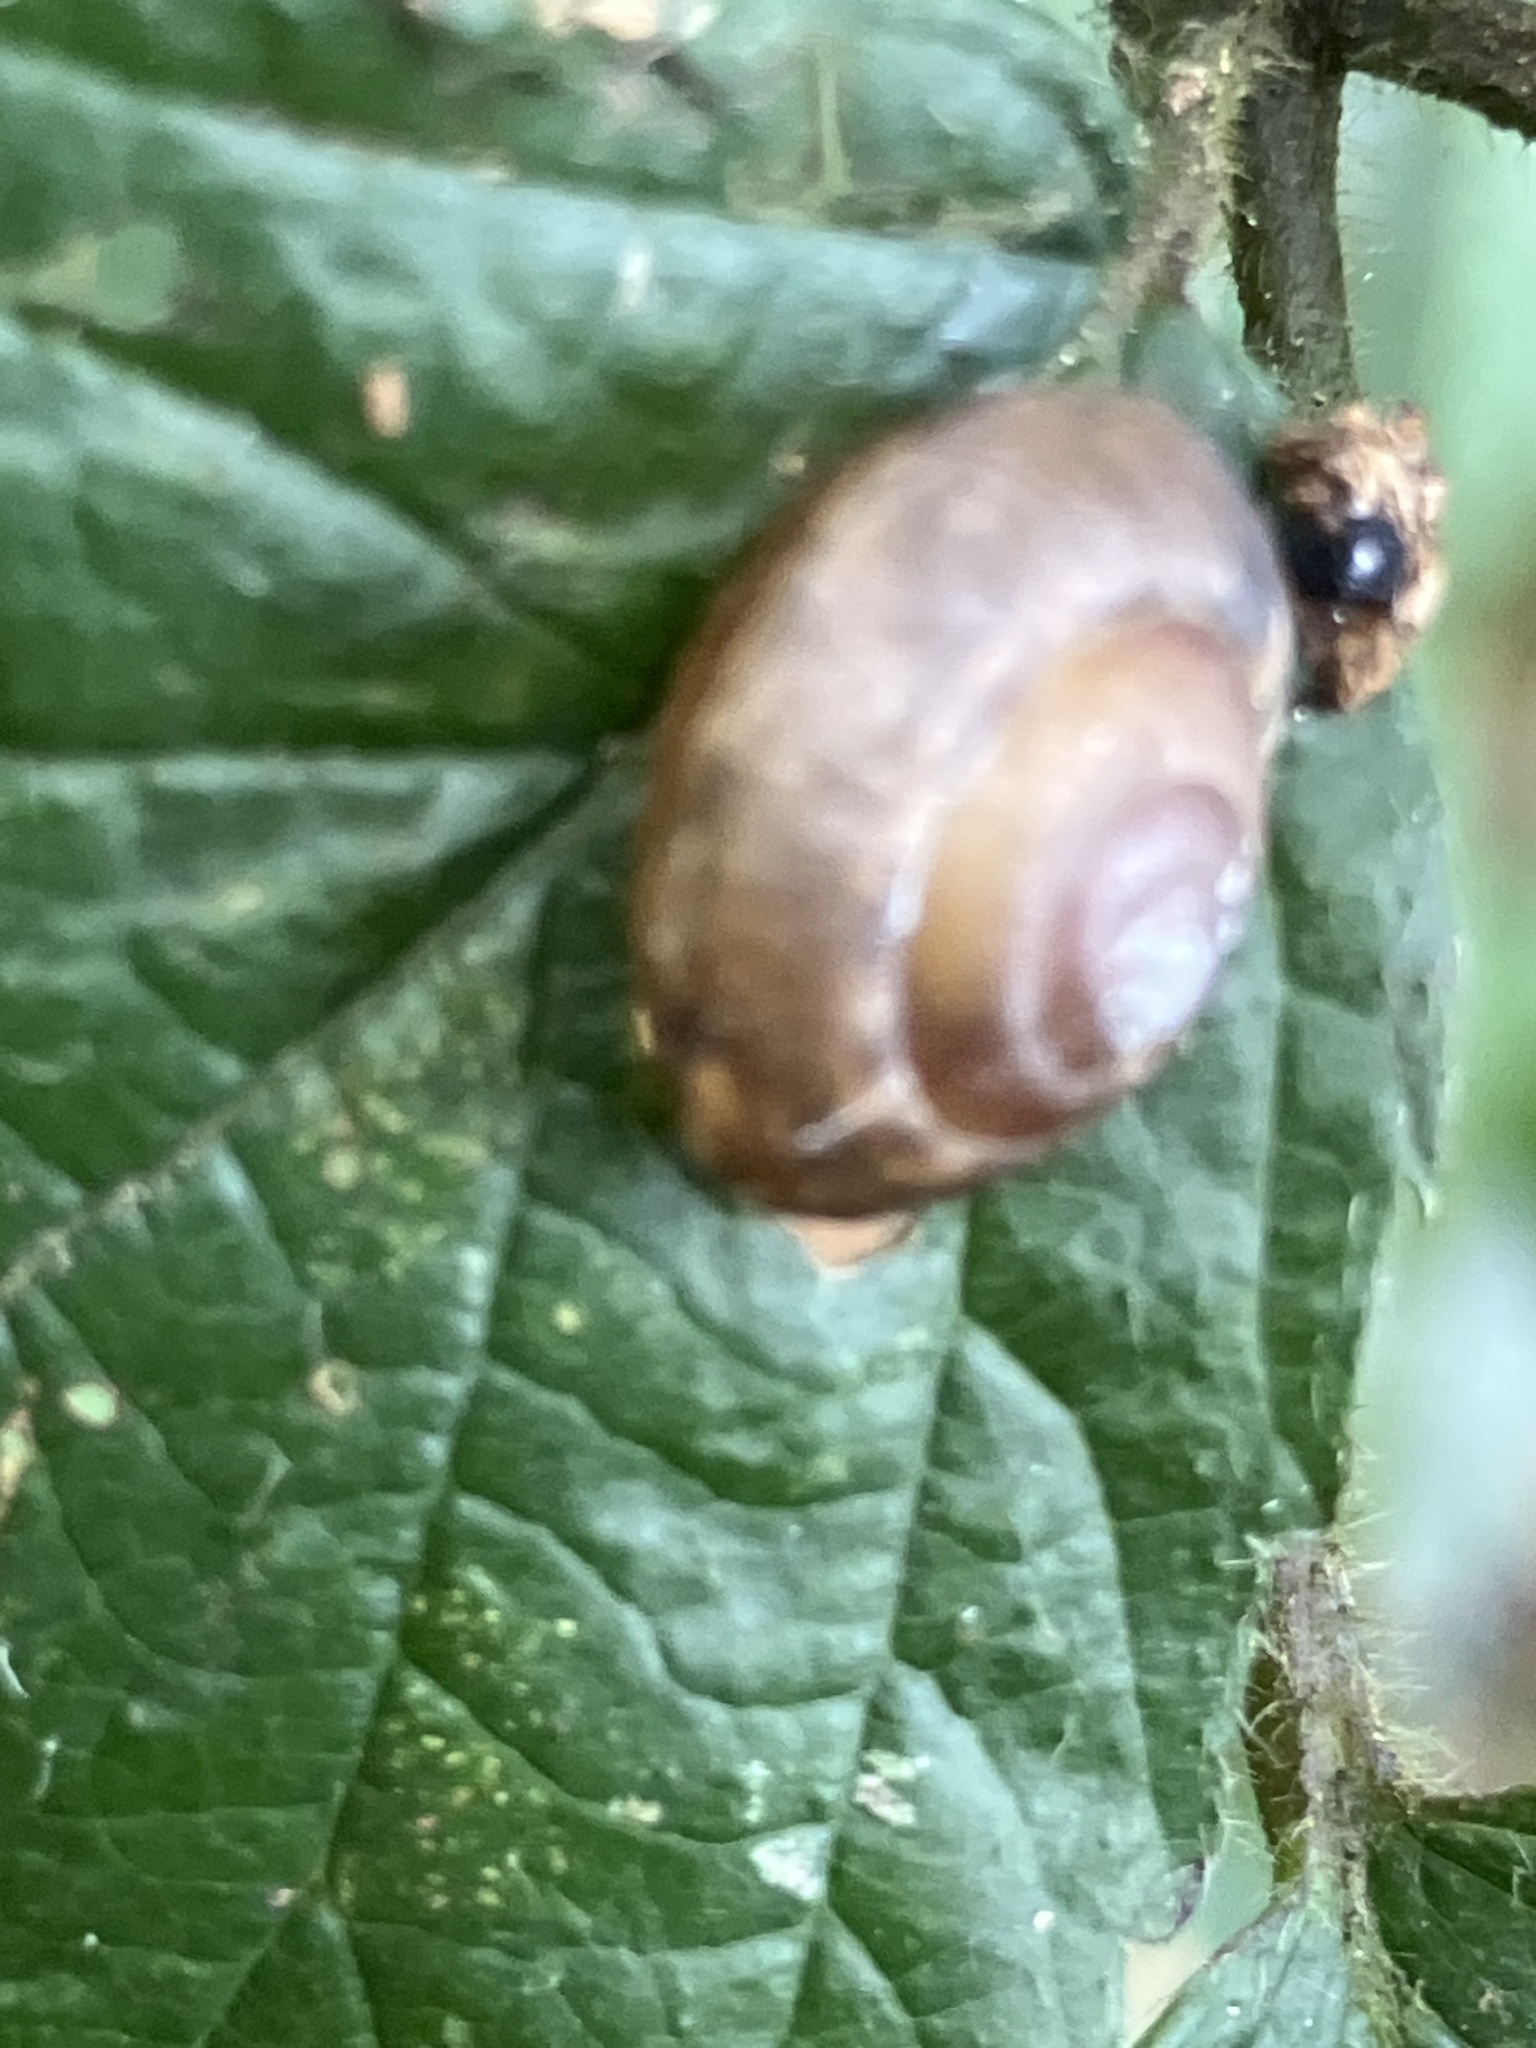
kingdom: Animalia
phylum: Mollusca
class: Gastropoda
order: Stylommatophora
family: Hygromiidae
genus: Hygromia
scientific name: Hygromia cinctella
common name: Girdled snail
